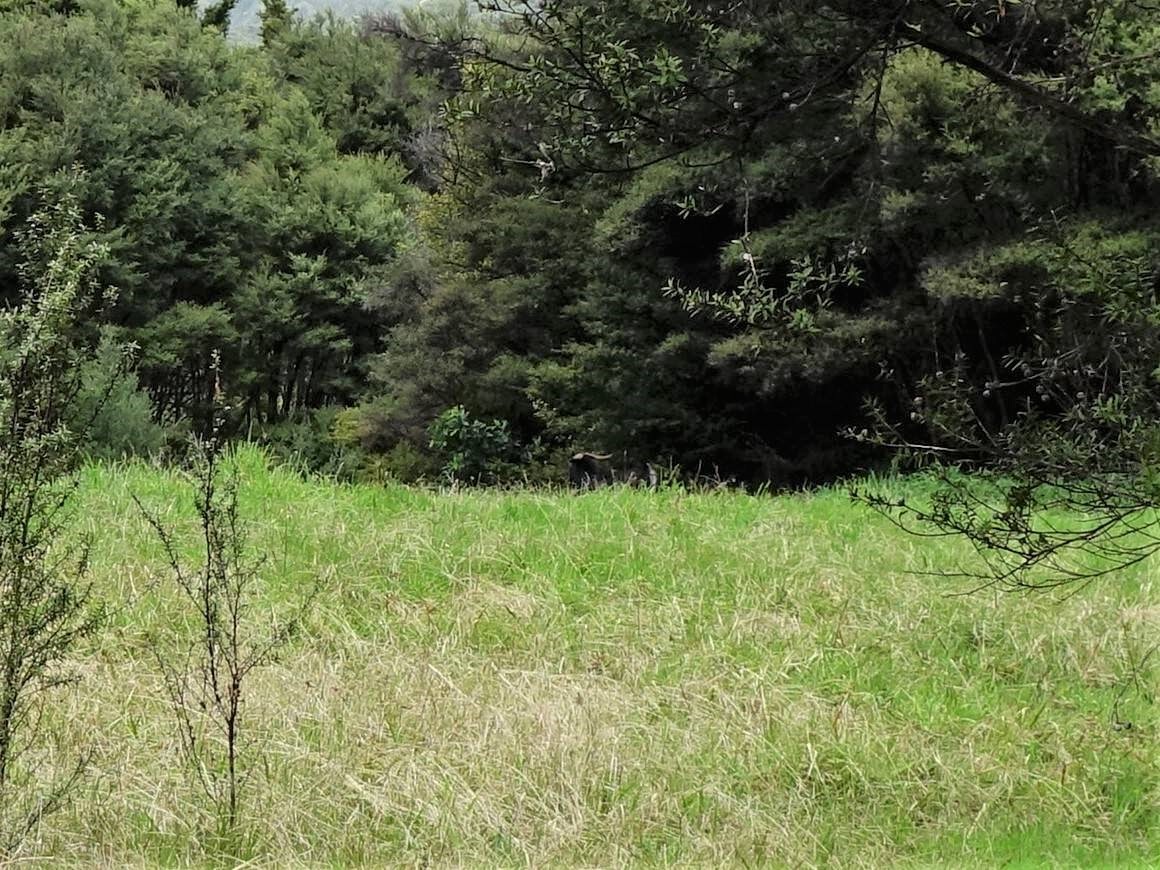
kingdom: Animalia
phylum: Chordata
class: Mammalia
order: Artiodactyla
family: Bovidae
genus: Capra
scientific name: Capra hircus
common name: Domestic goat
